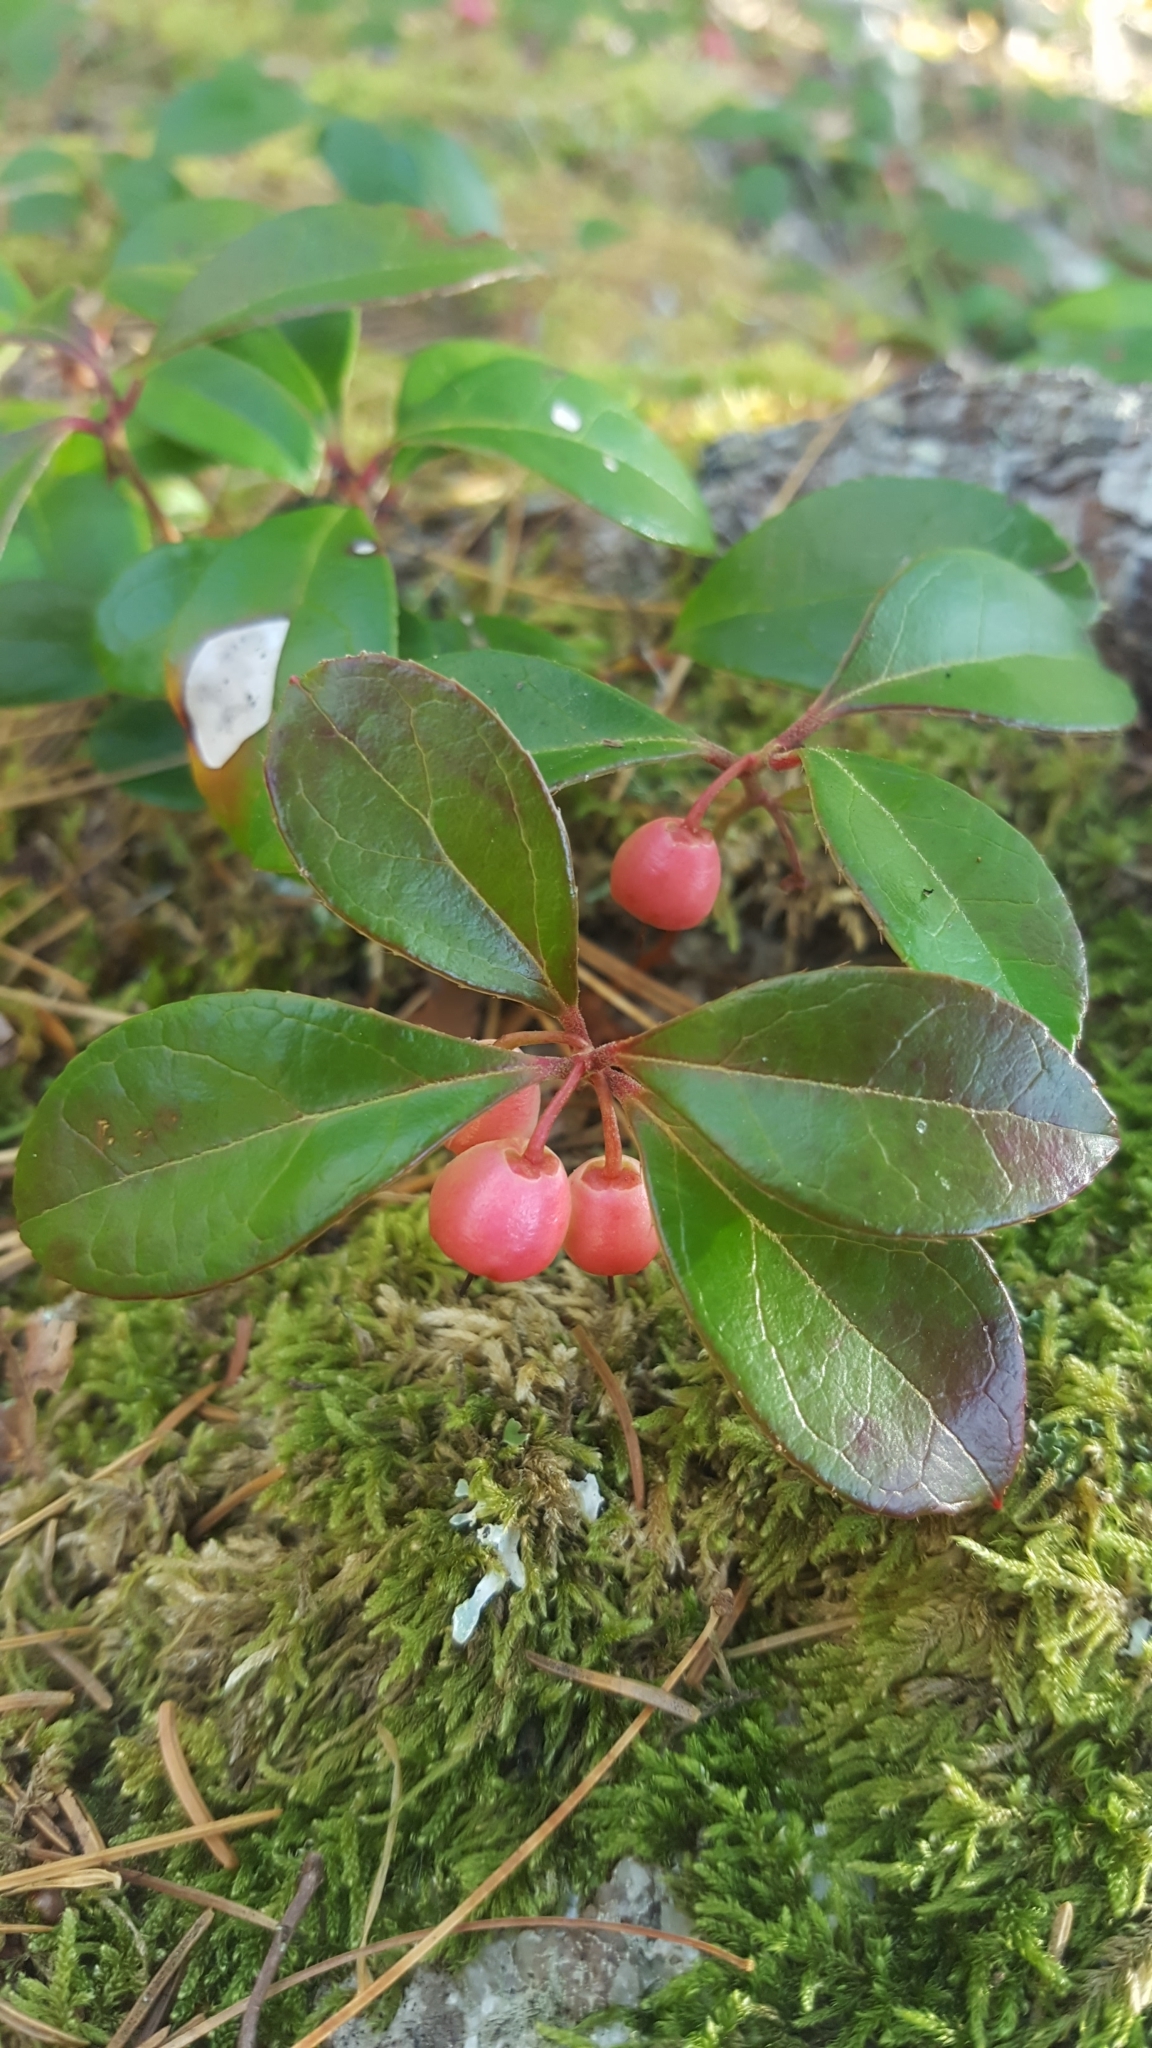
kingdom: Plantae
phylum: Tracheophyta
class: Magnoliopsida
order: Ericales
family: Ericaceae
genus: Gaultheria
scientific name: Gaultheria procumbens
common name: Checkerberry
